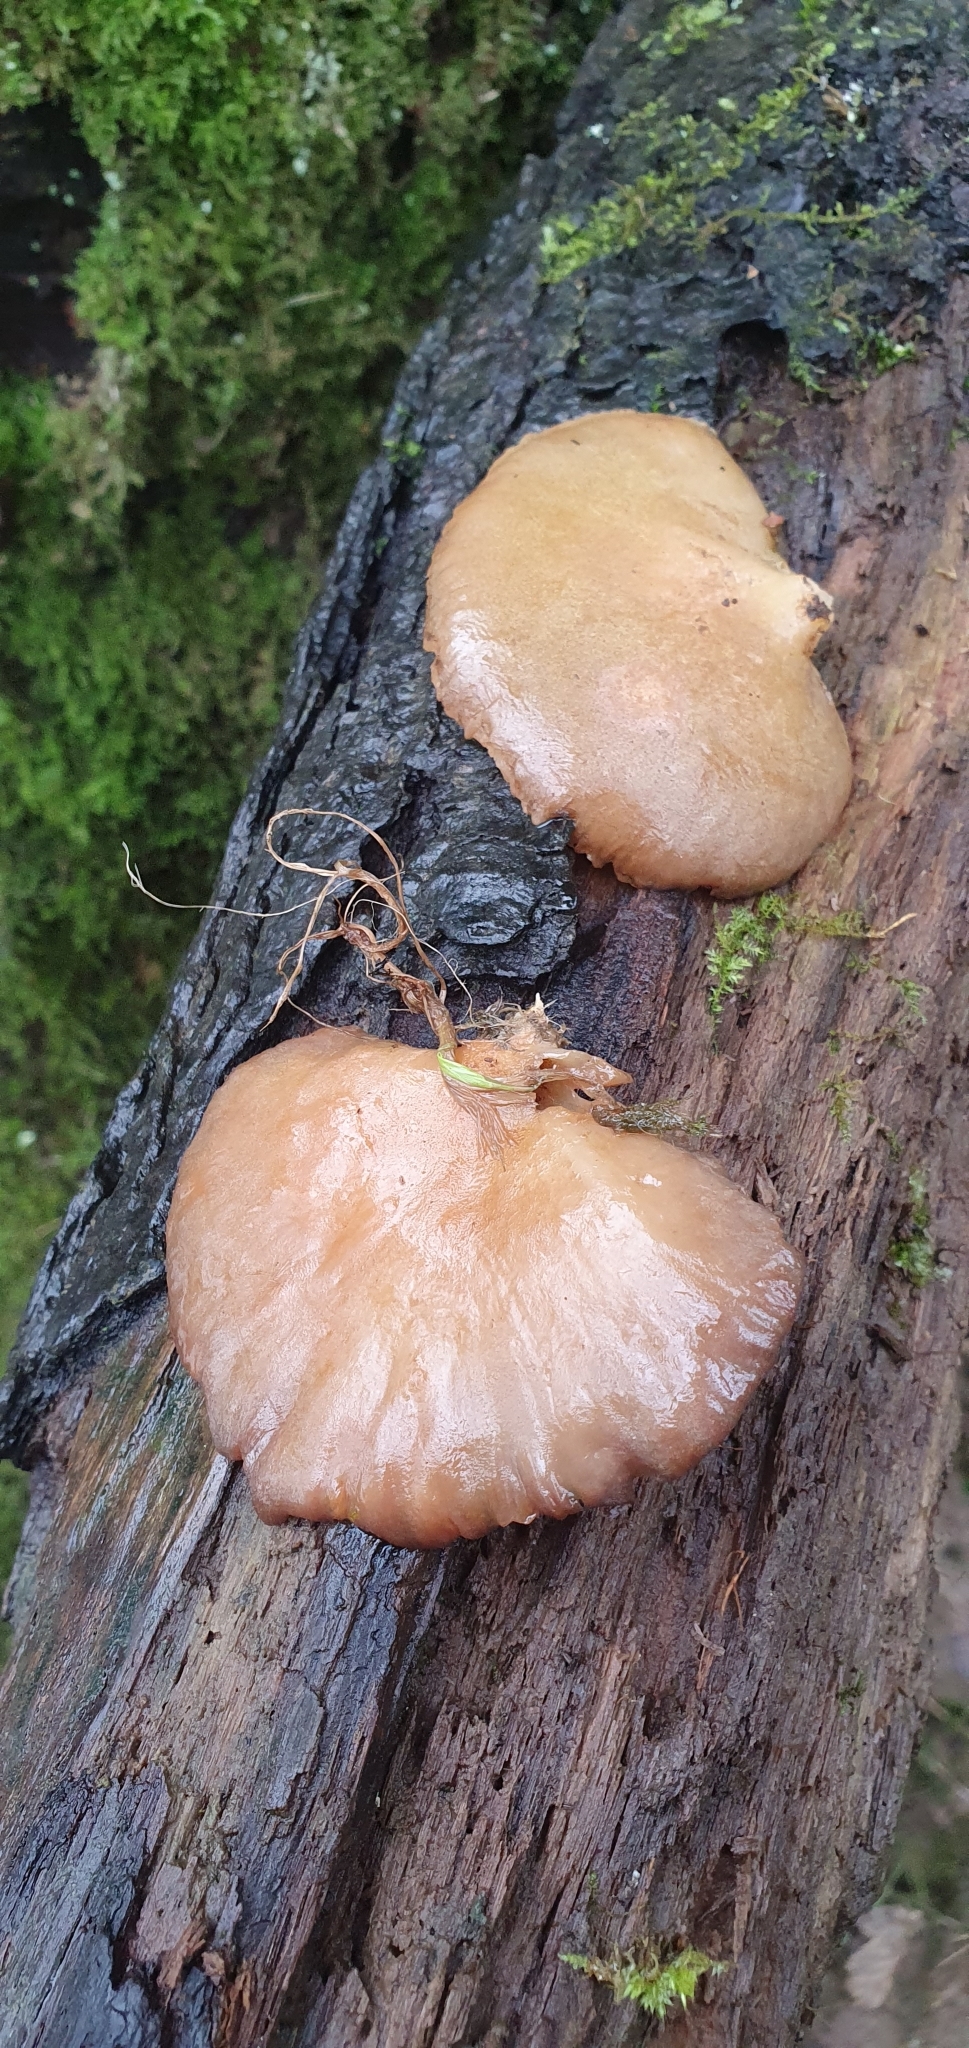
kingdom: Fungi
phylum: Basidiomycota
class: Agaricomycetes
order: Agaricales
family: Sarcomyxaceae
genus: Sarcomyxa
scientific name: Sarcomyxa serotina
